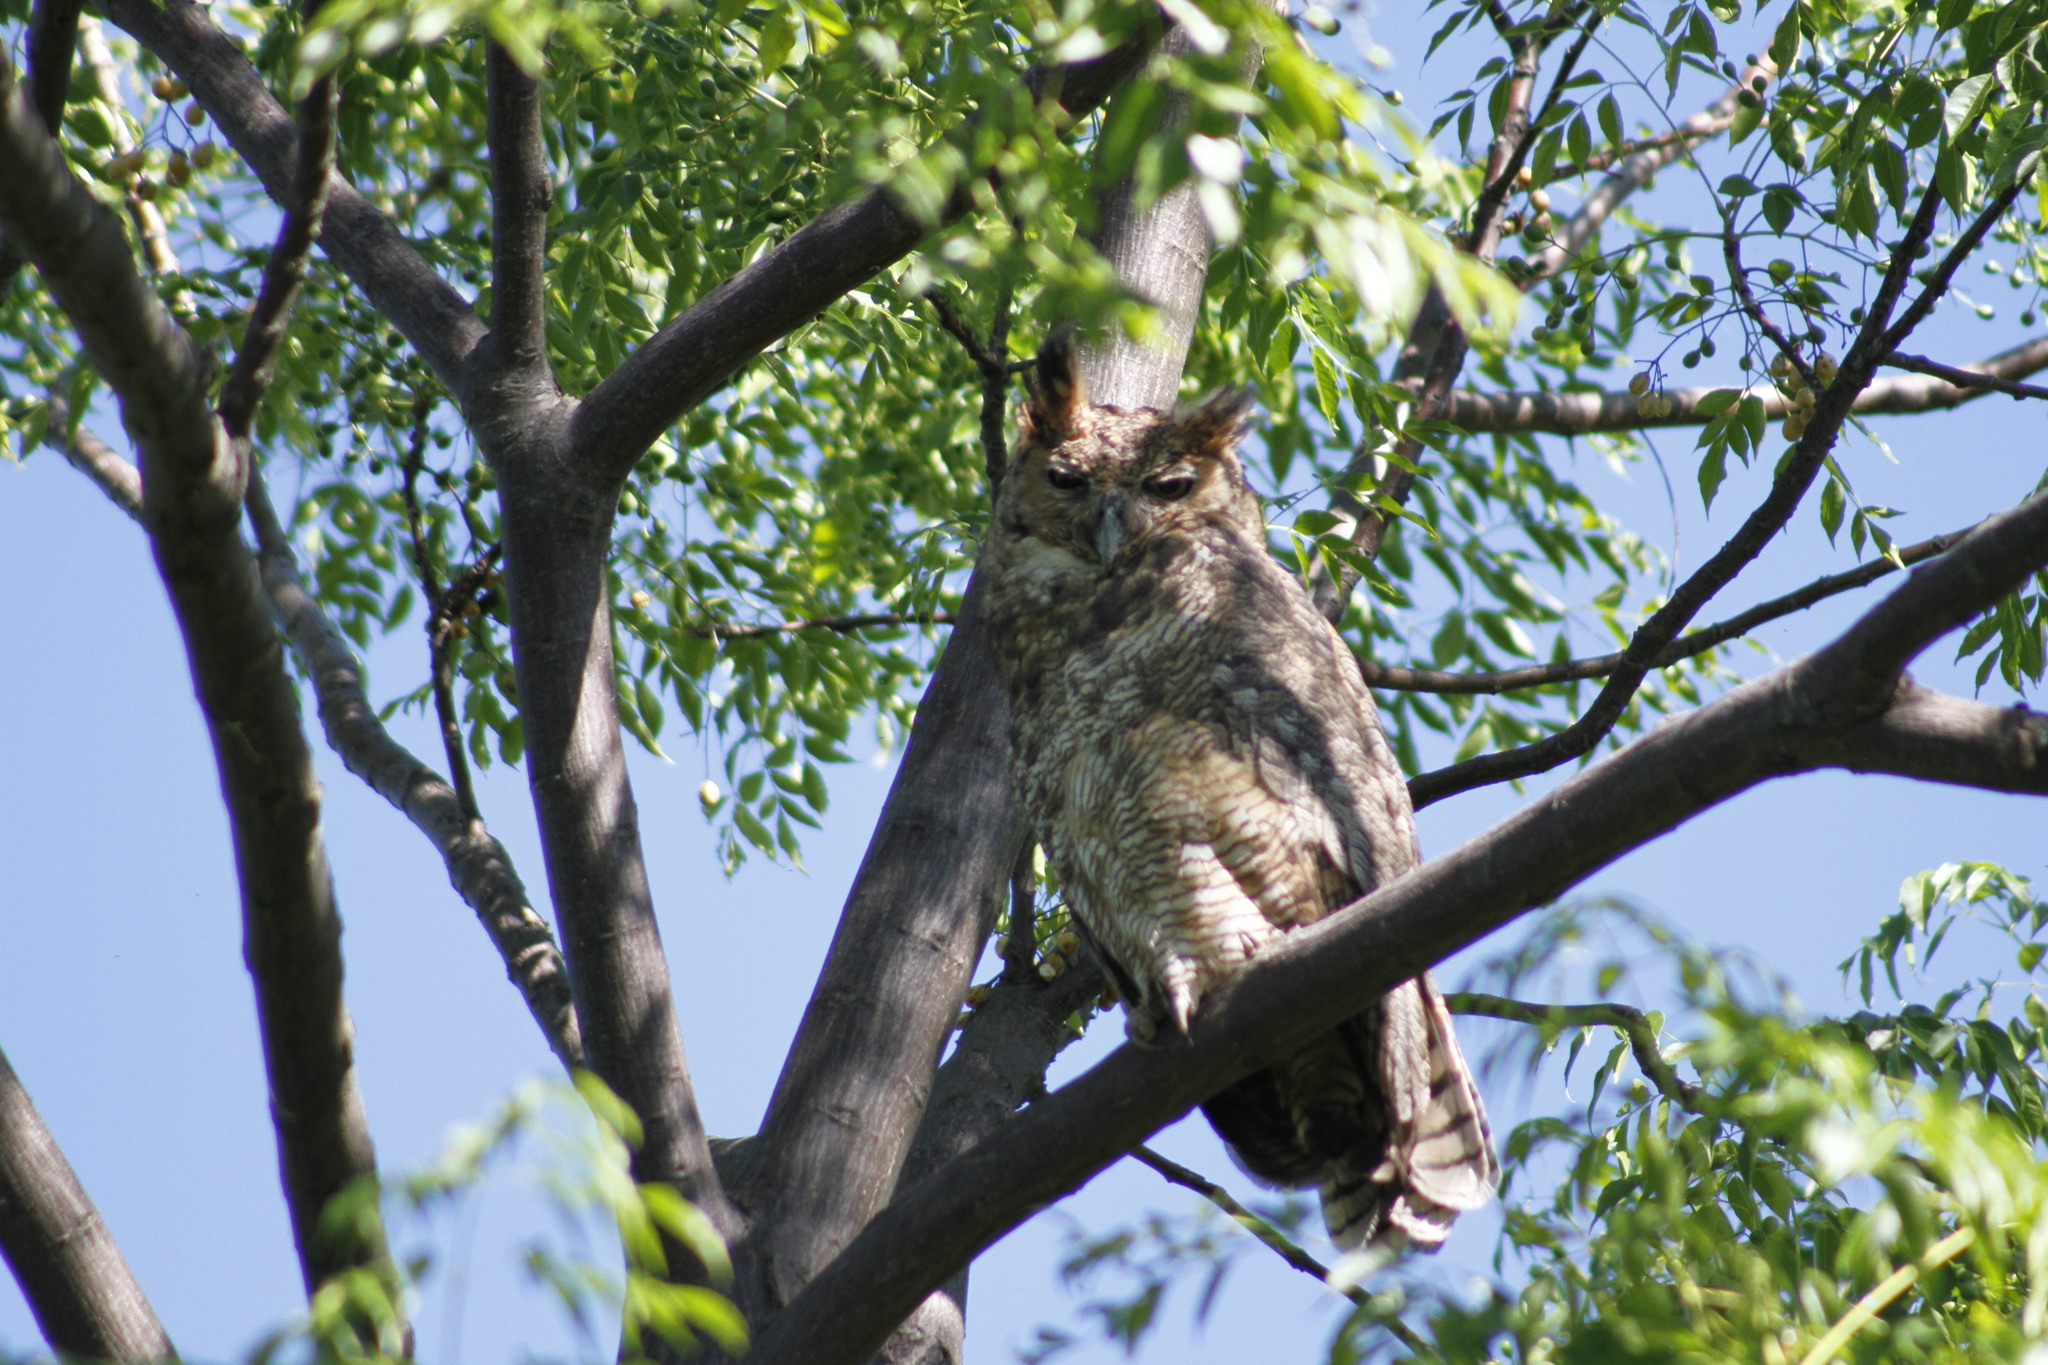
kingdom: Animalia
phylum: Chordata
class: Aves
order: Strigiformes
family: Strigidae
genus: Bubo
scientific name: Bubo virginianus
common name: Great horned owl
